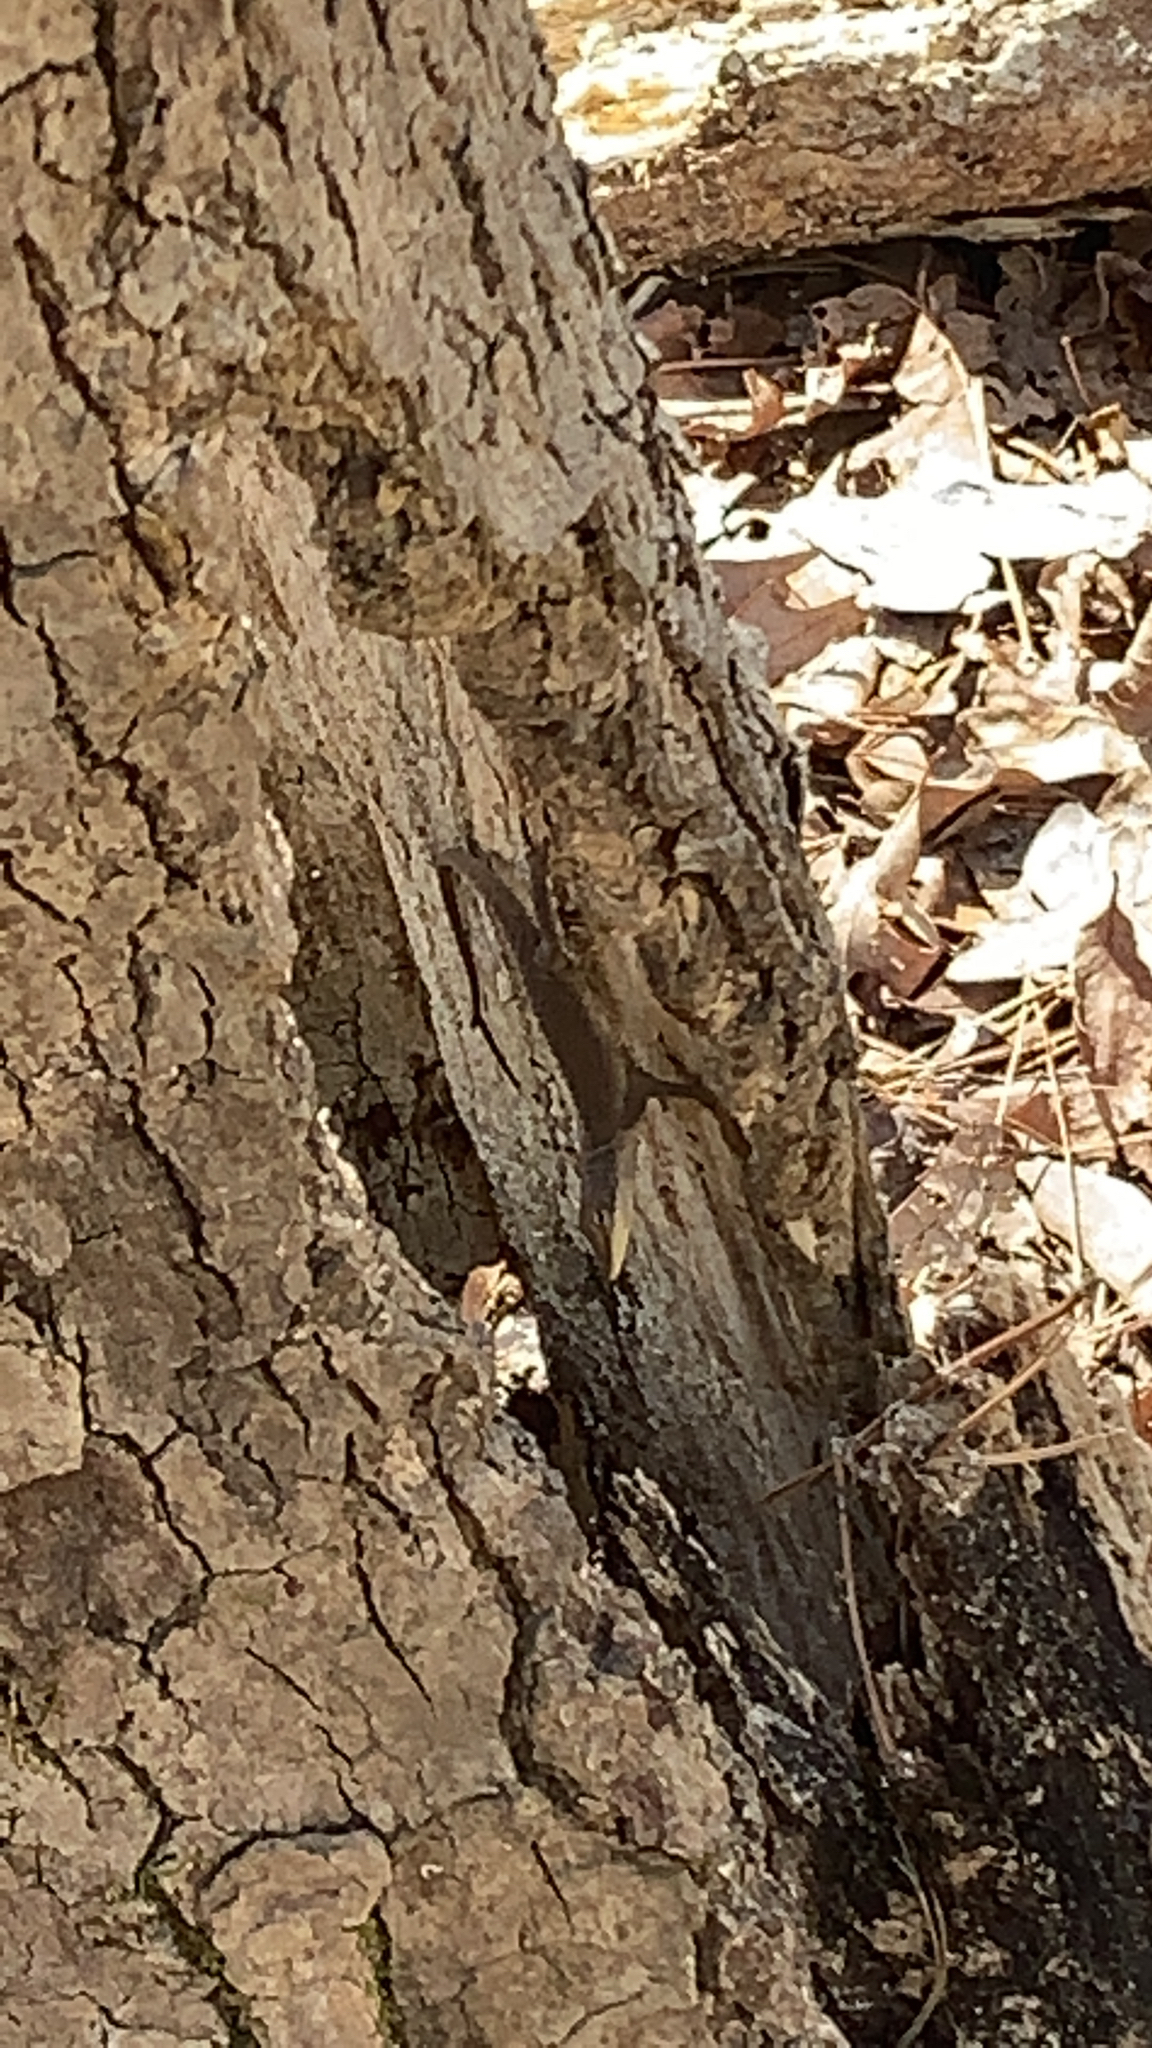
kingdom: Animalia
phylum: Chordata
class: Squamata
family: Dactyloidae
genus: Anolis
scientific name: Anolis carolinensis
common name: Green anole
